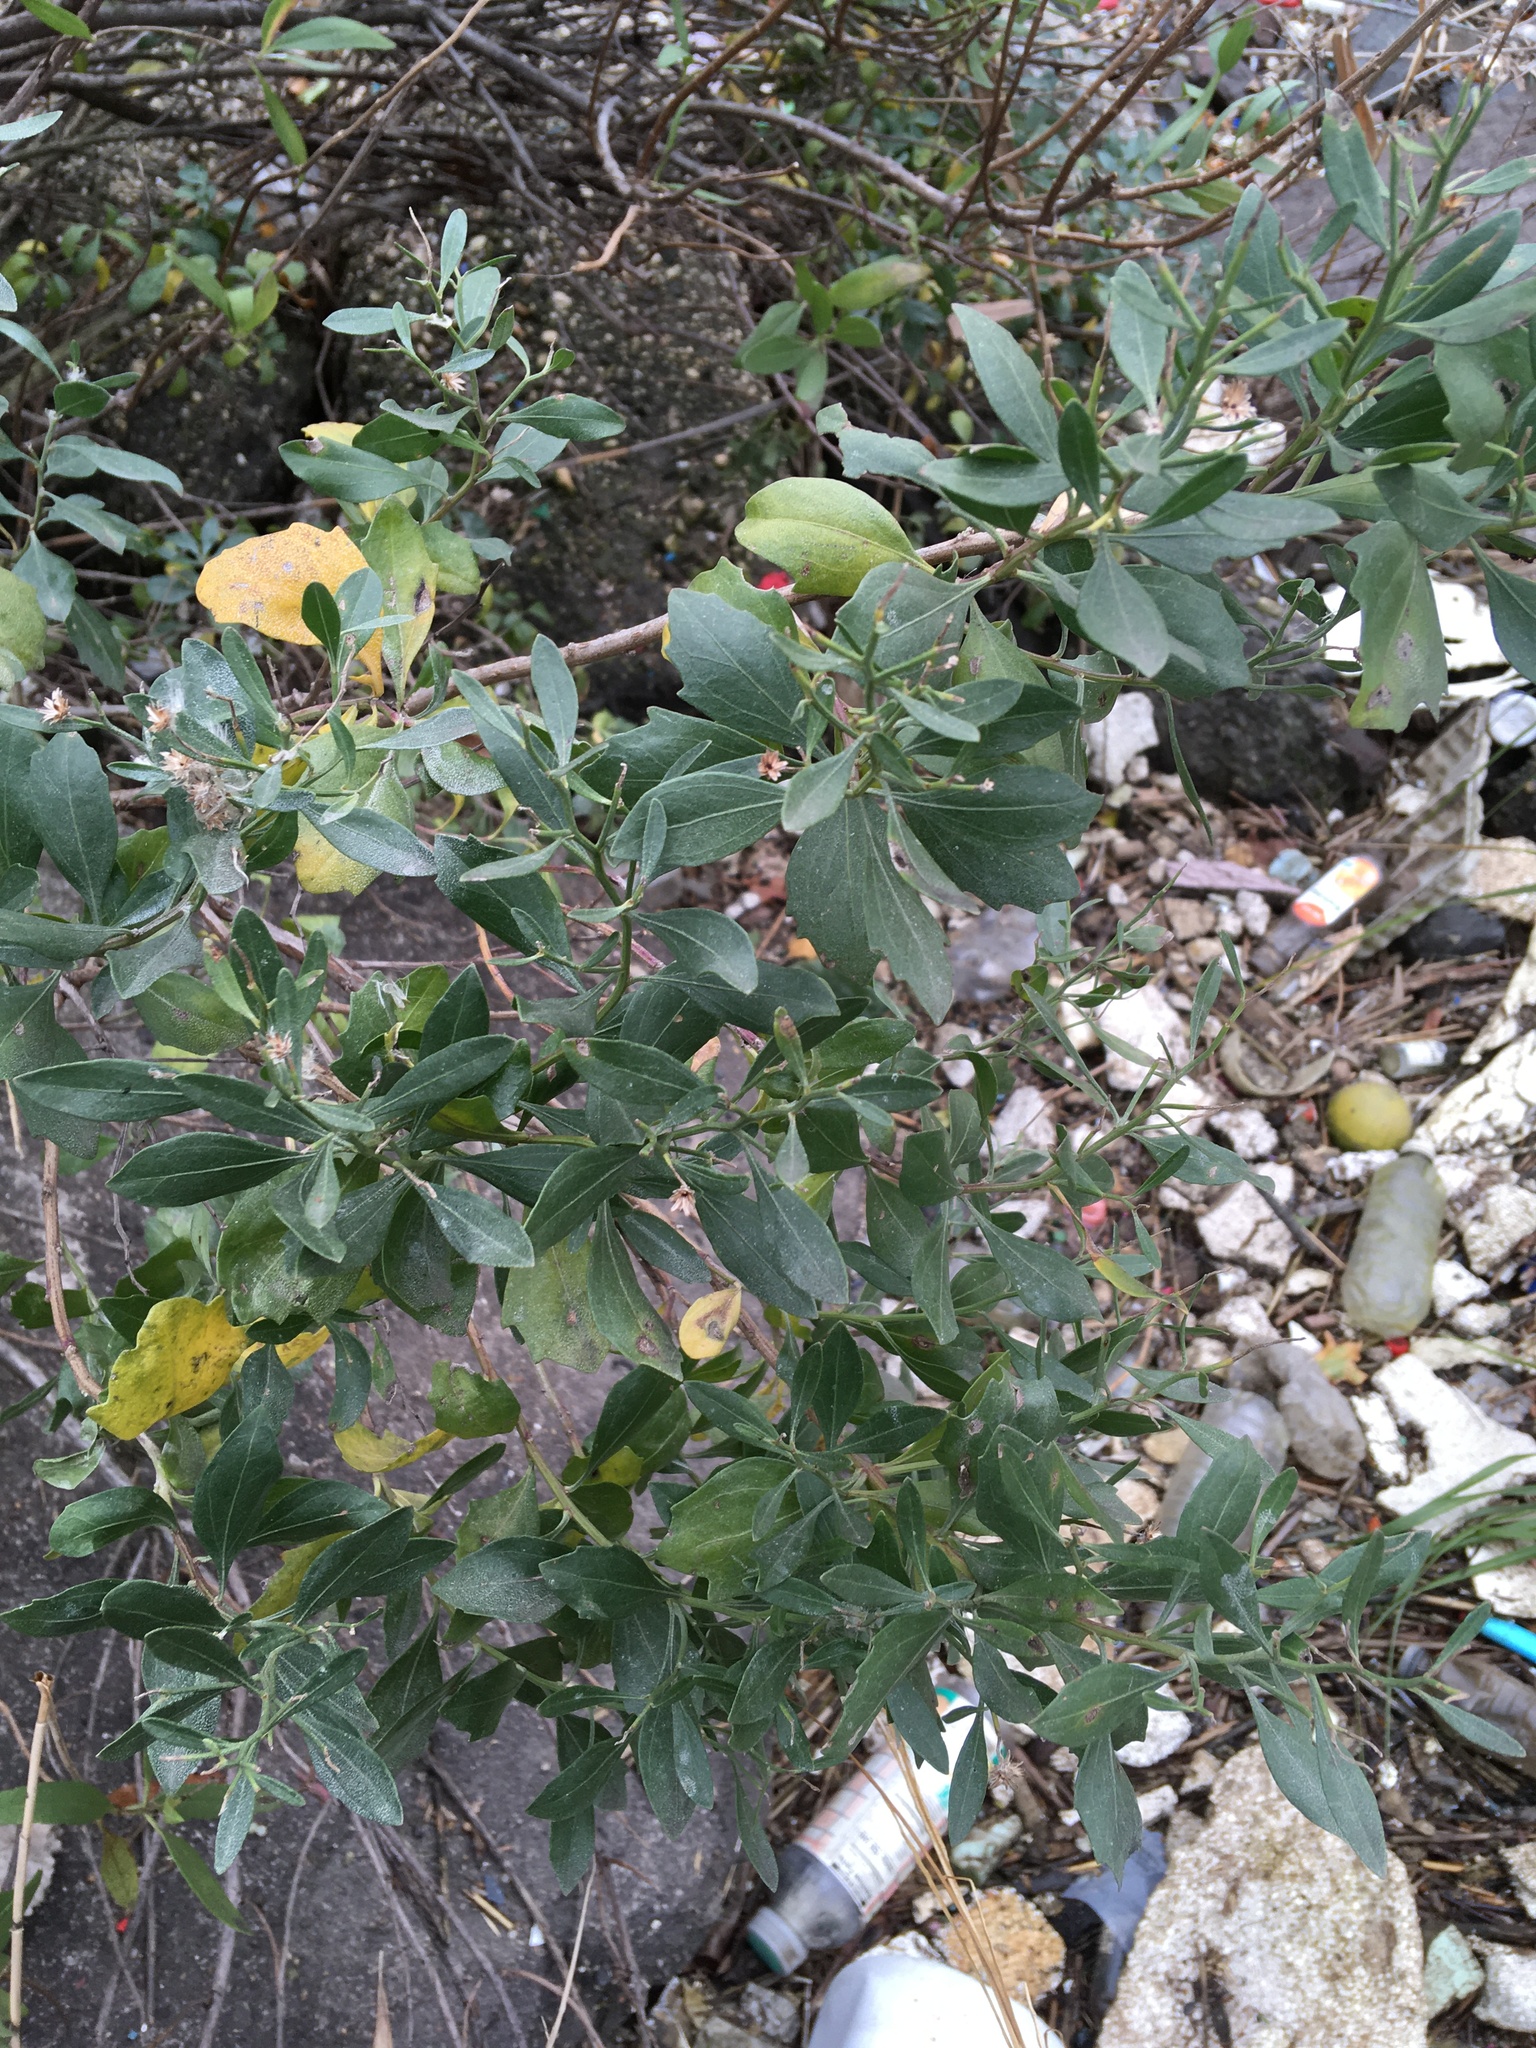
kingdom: Plantae
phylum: Tracheophyta
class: Magnoliopsida
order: Asterales
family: Asteraceae
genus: Baccharis
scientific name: Baccharis halimifolia
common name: Eastern baccharis
